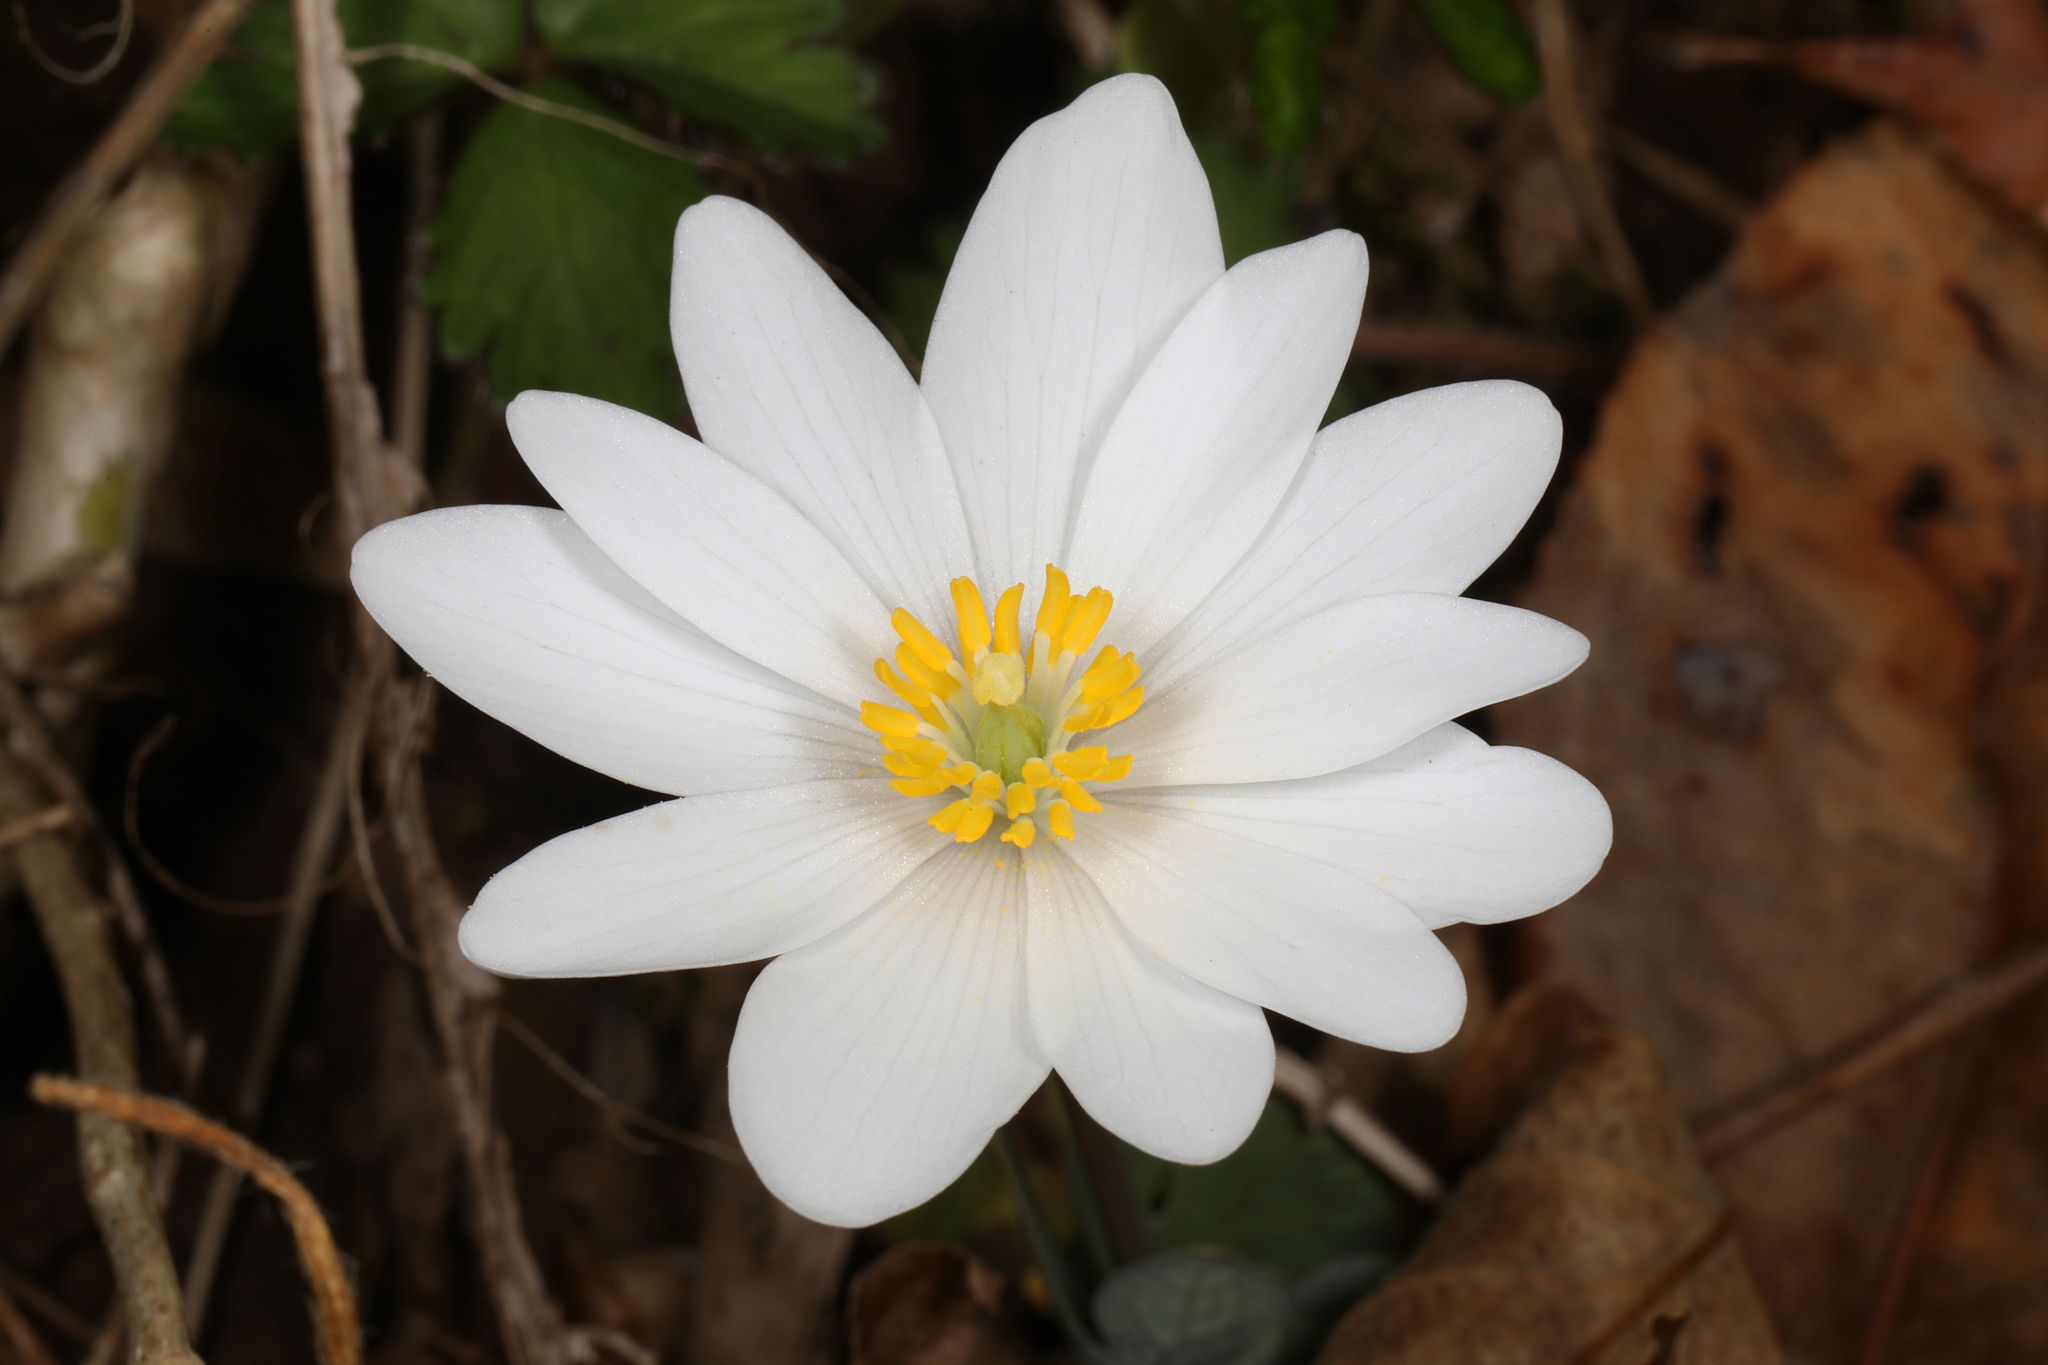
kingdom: Plantae
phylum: Tracheophyta
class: Magnoliopsida
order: Ranunculales
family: Papaveraceae
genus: Sanguinaria
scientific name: Sanguinaria canadensis
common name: Bloodroot
